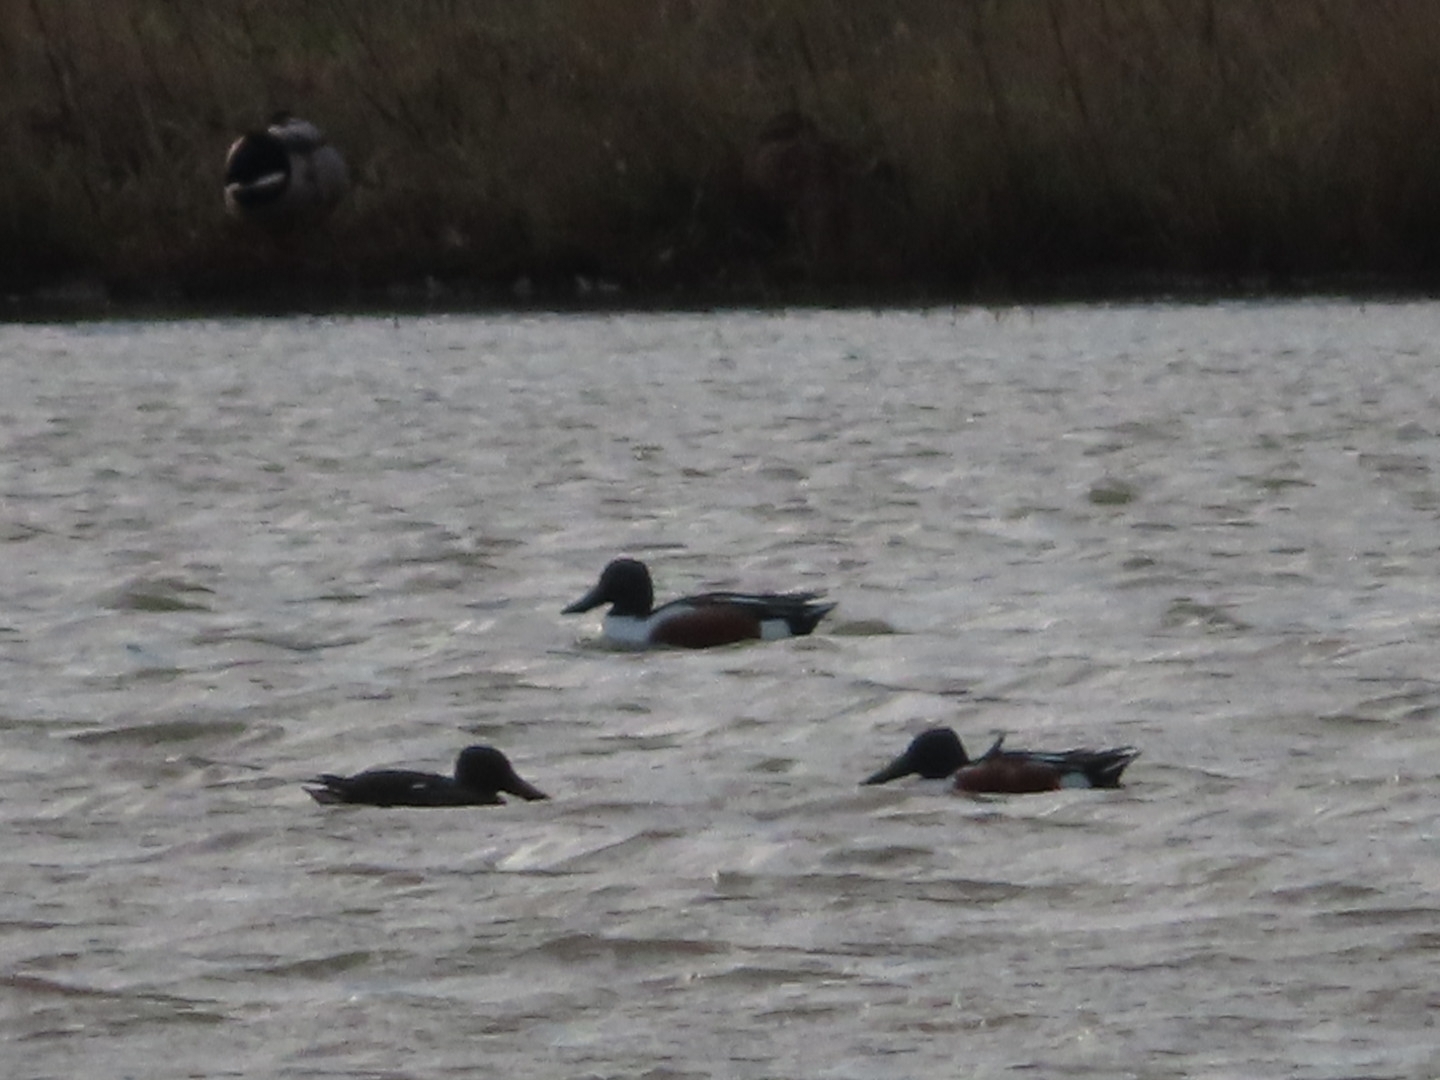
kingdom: Animalia
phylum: Chordata
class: Aves
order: Anseriformes
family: Anatidae
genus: Spatula
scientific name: Spatula clypeata
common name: Northern shoveler
